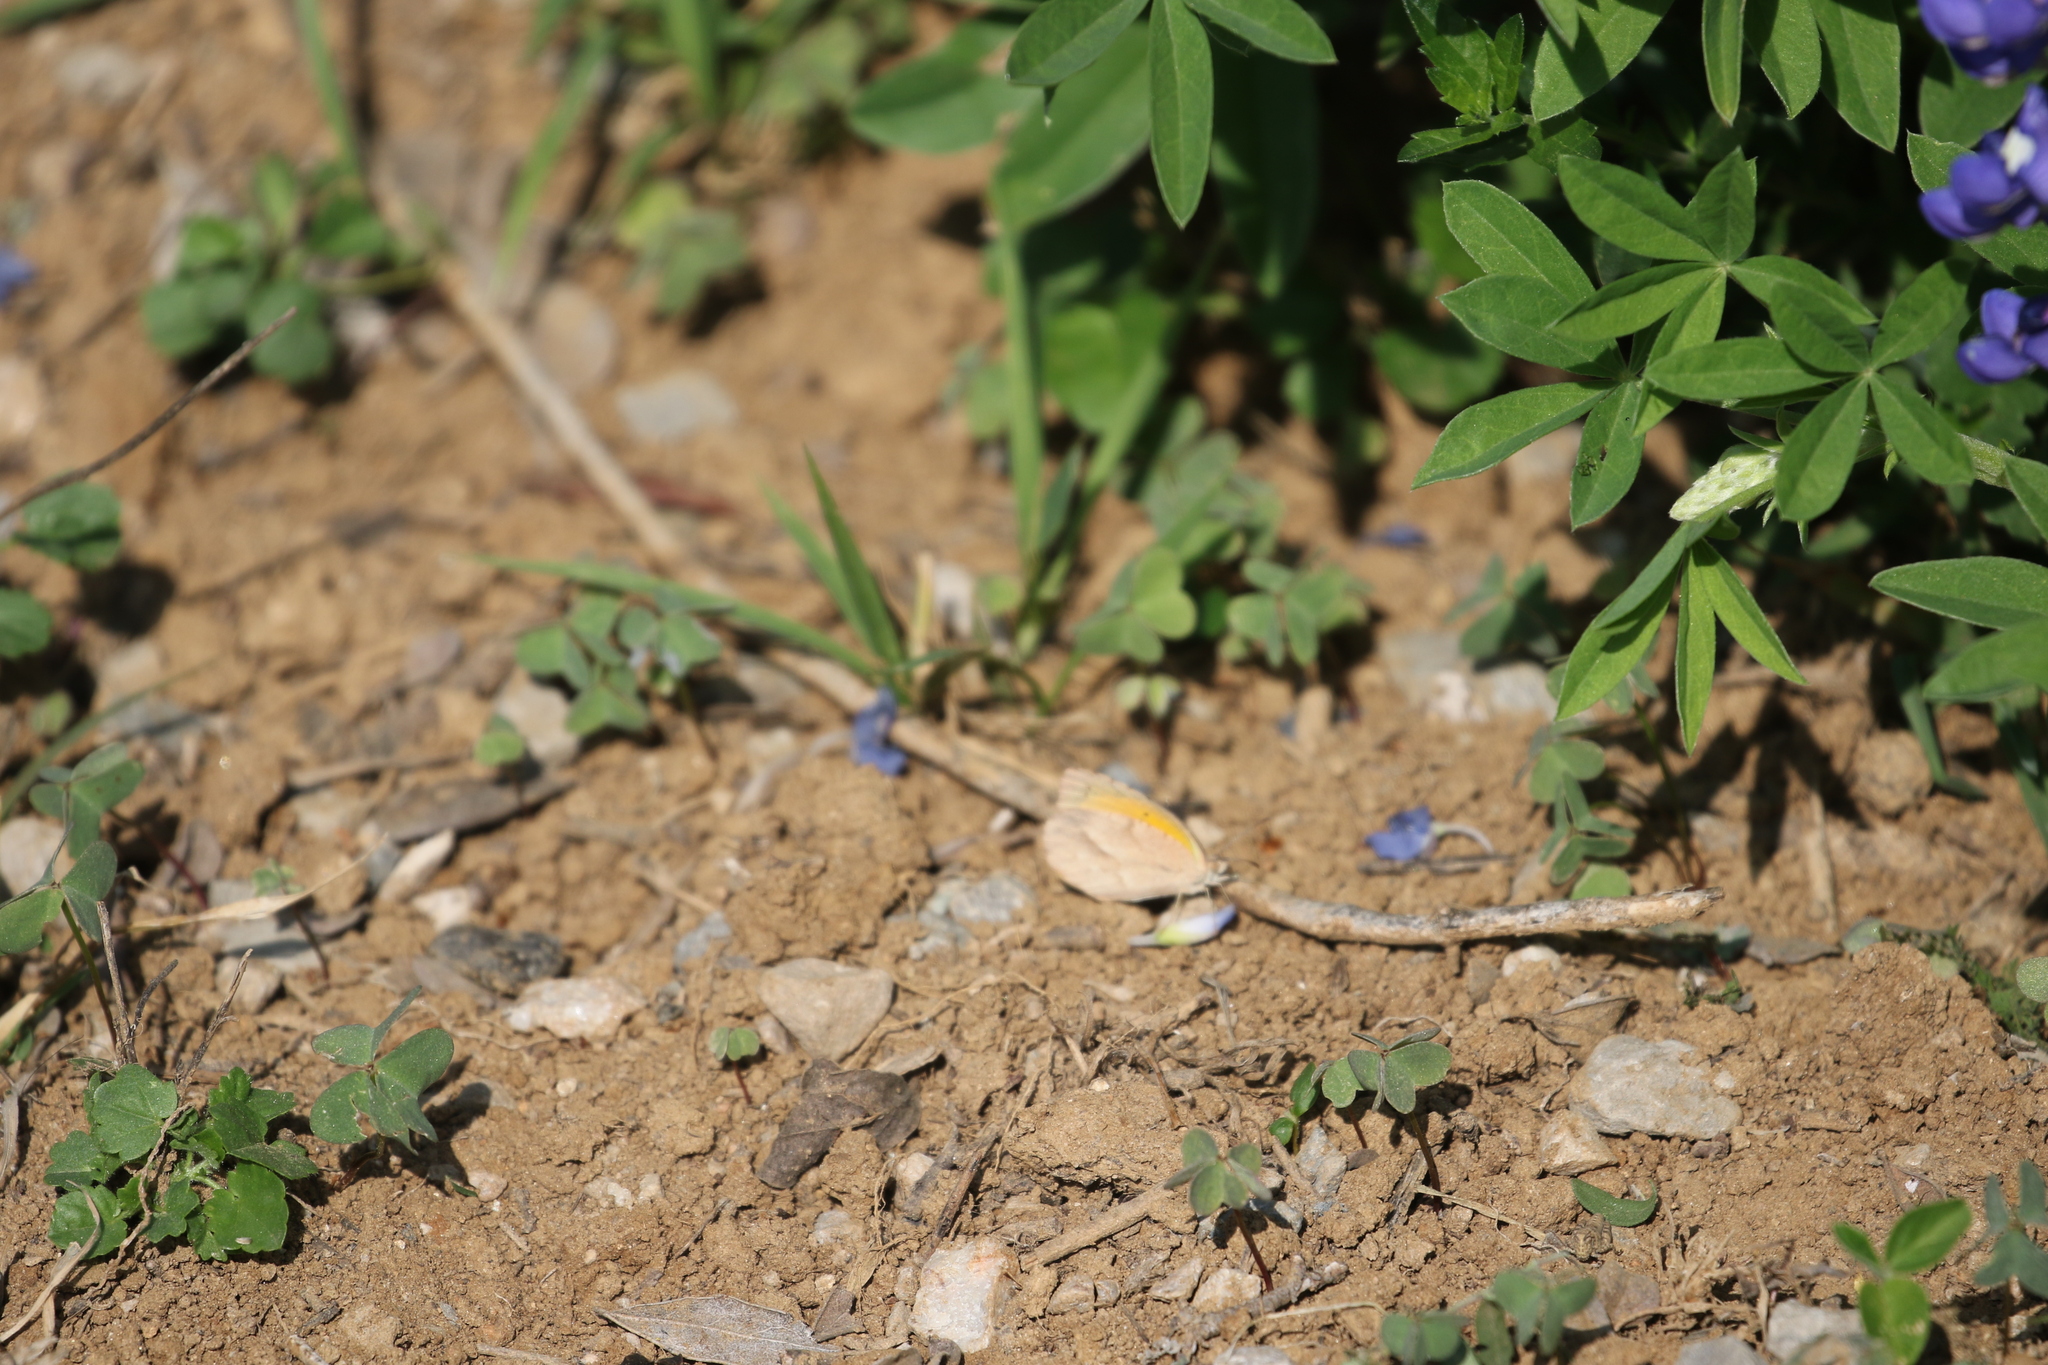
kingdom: Animalia
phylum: Arthropoda
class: Insecta
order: Lepidoptera
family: Pieridae
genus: Abaeis
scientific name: Abaeis nicippe
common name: Sleepy orange
